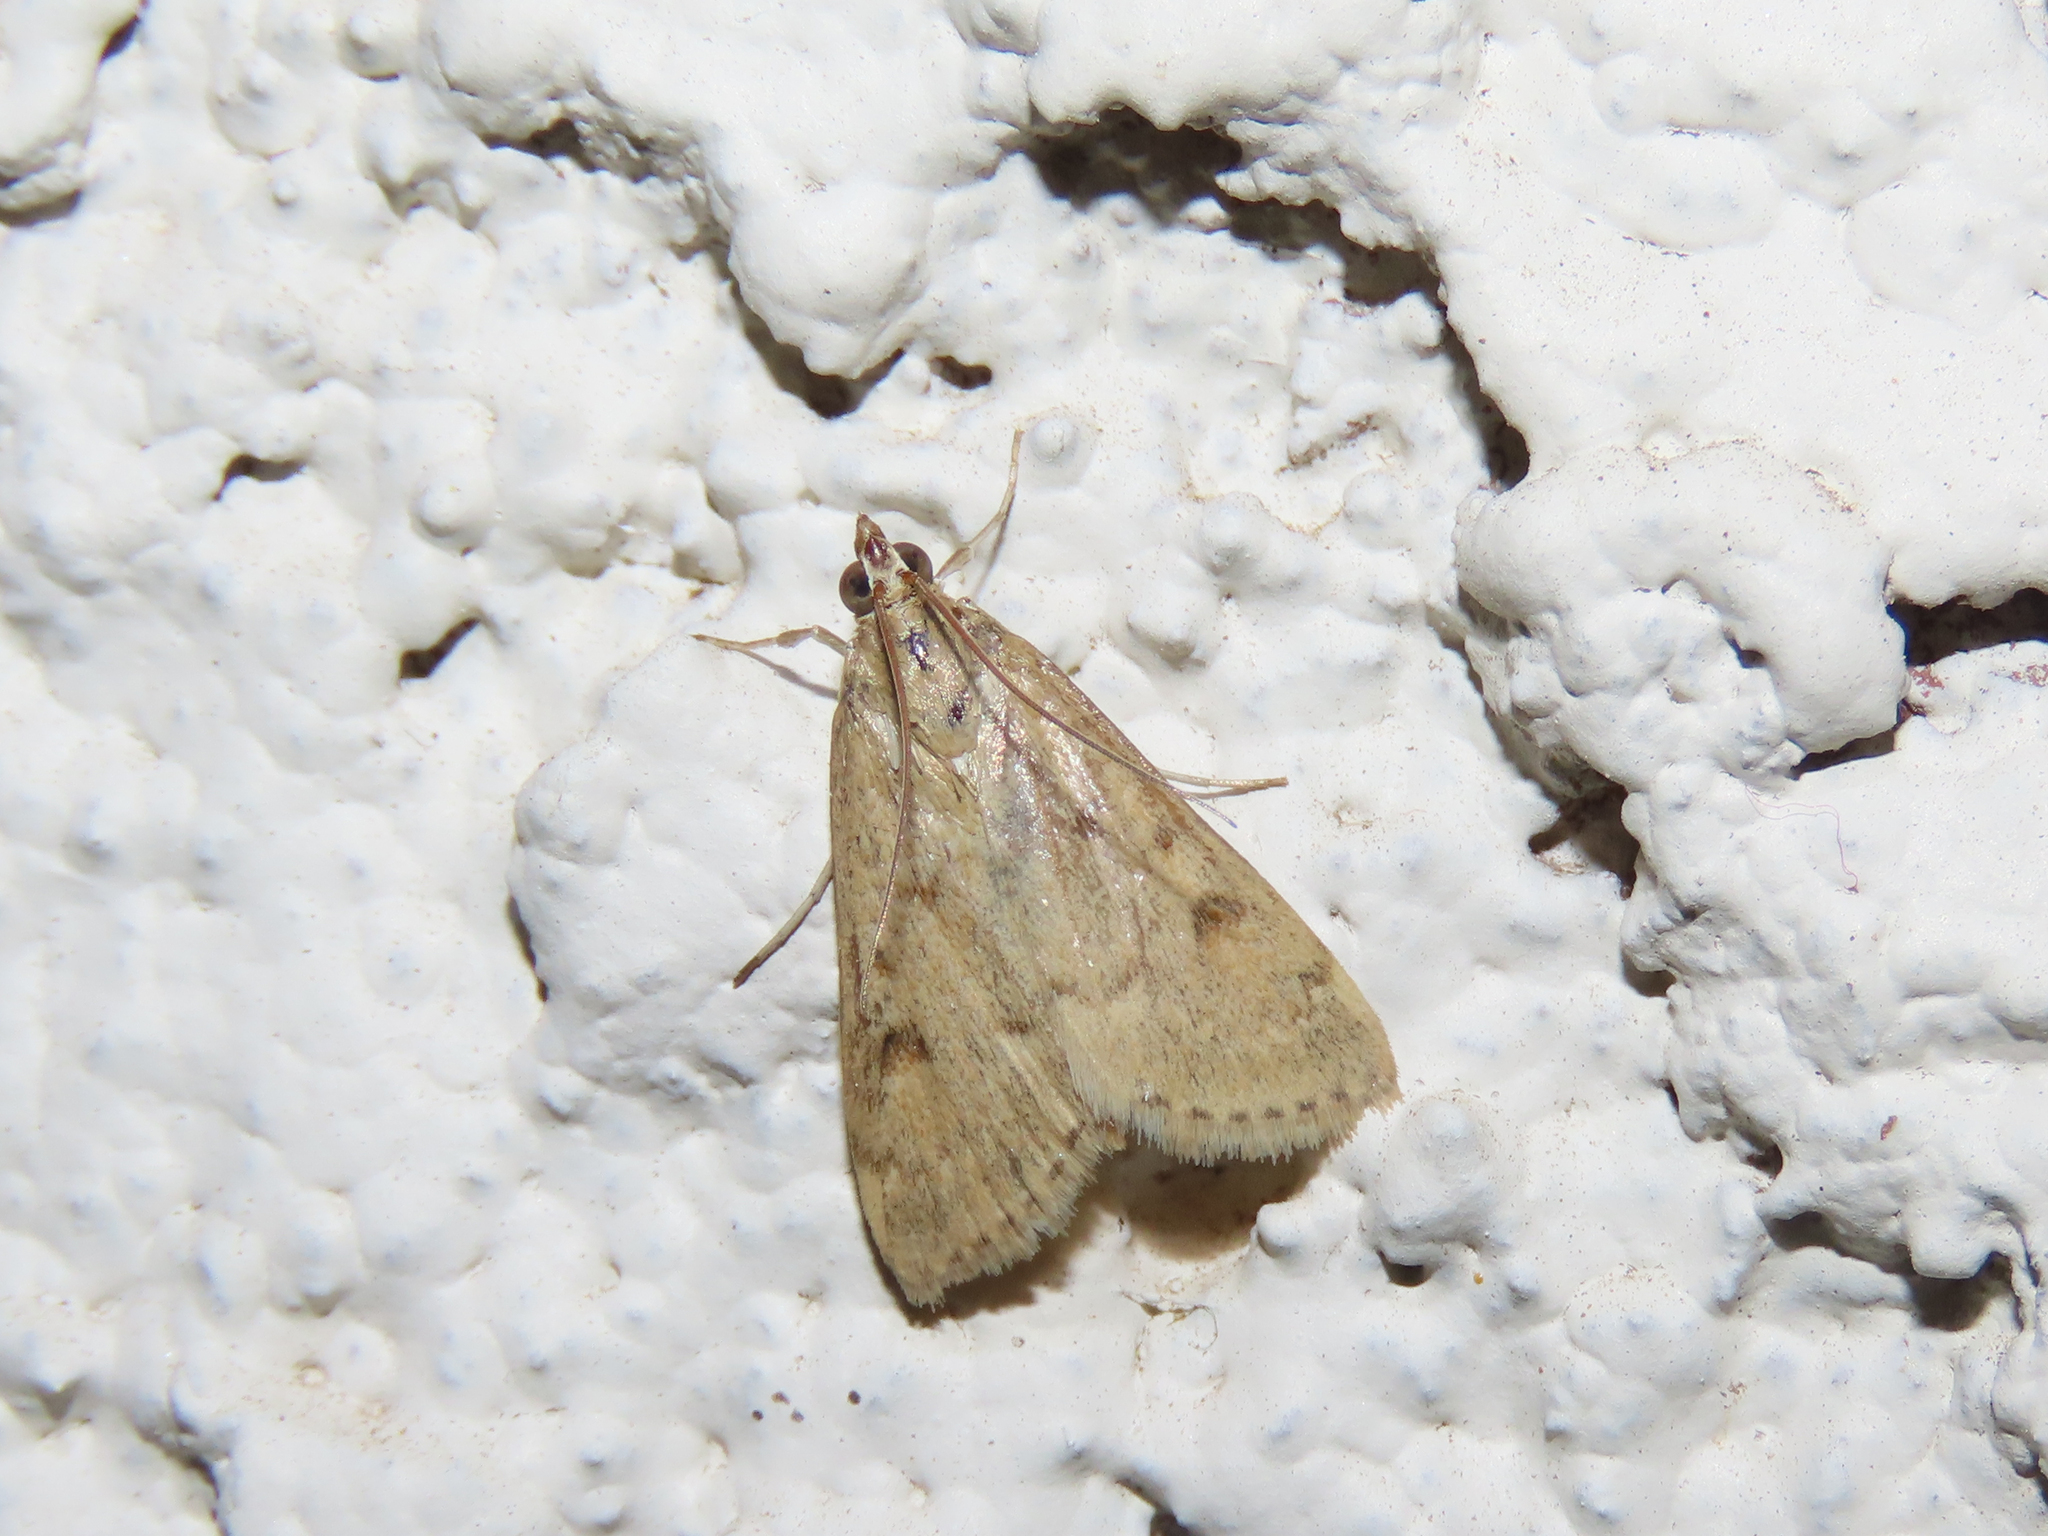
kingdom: Animalia
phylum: Arthropoda
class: Insecta
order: Lepidoptera
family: Crambidae
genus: Achyra
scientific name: Achyra rantalis
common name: Garden webworm
